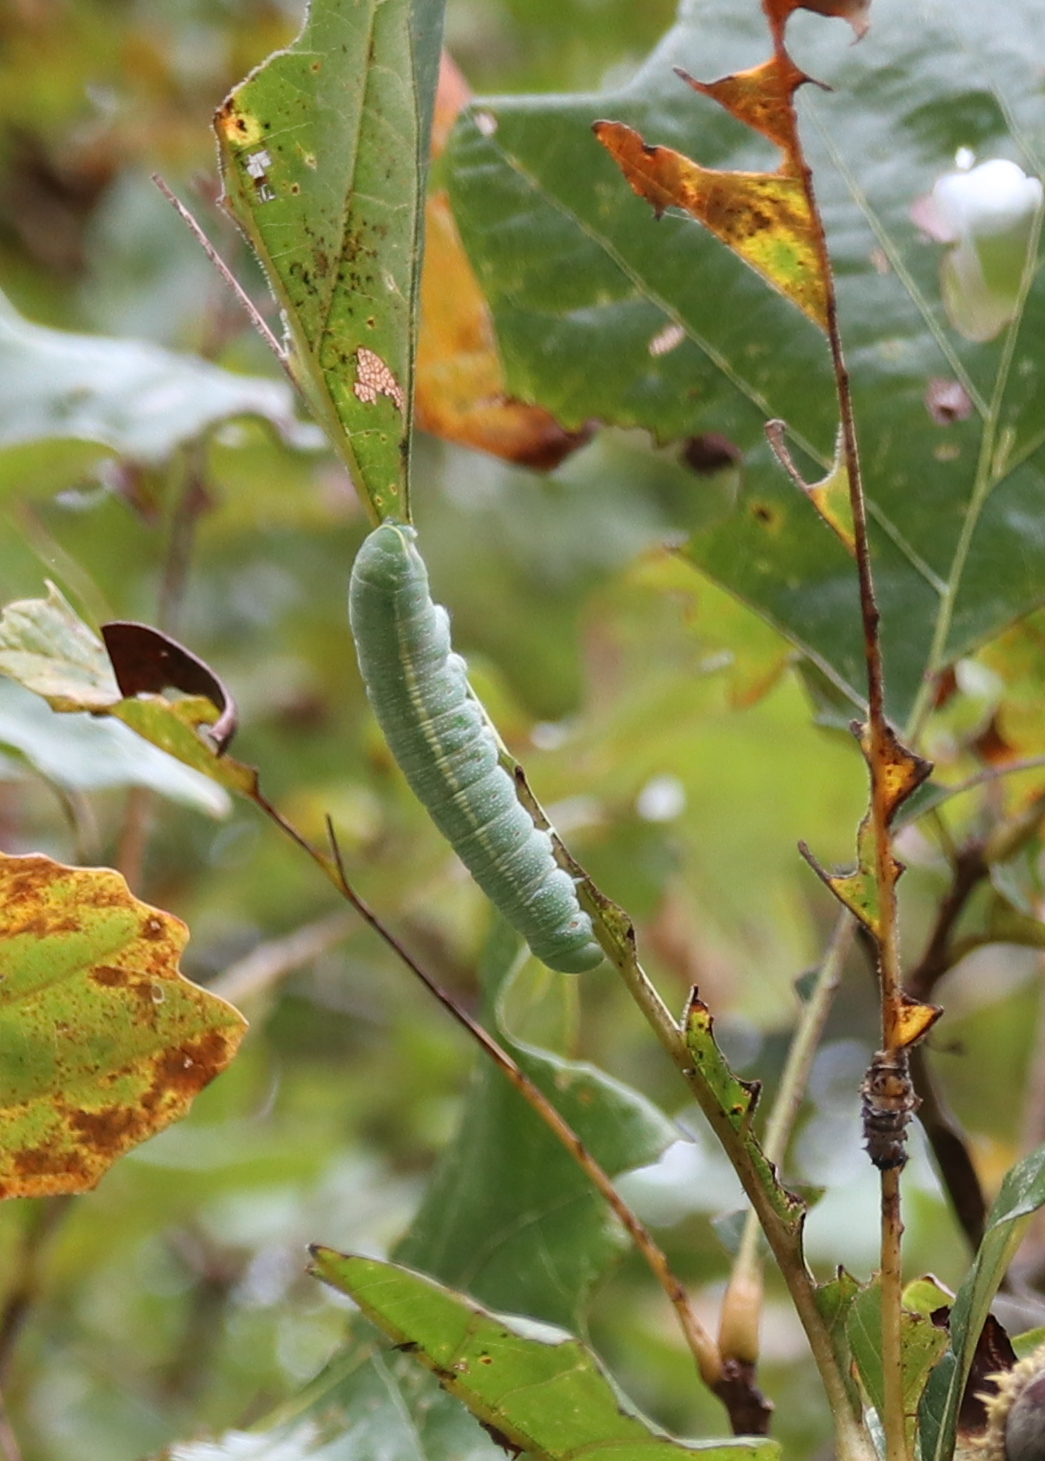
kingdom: Animalia
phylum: Arthropoda
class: Insecta
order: Lepidoptera
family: Notodontidae
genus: Nadata
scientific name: Nadata gibbosa
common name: White-dotted prominent
